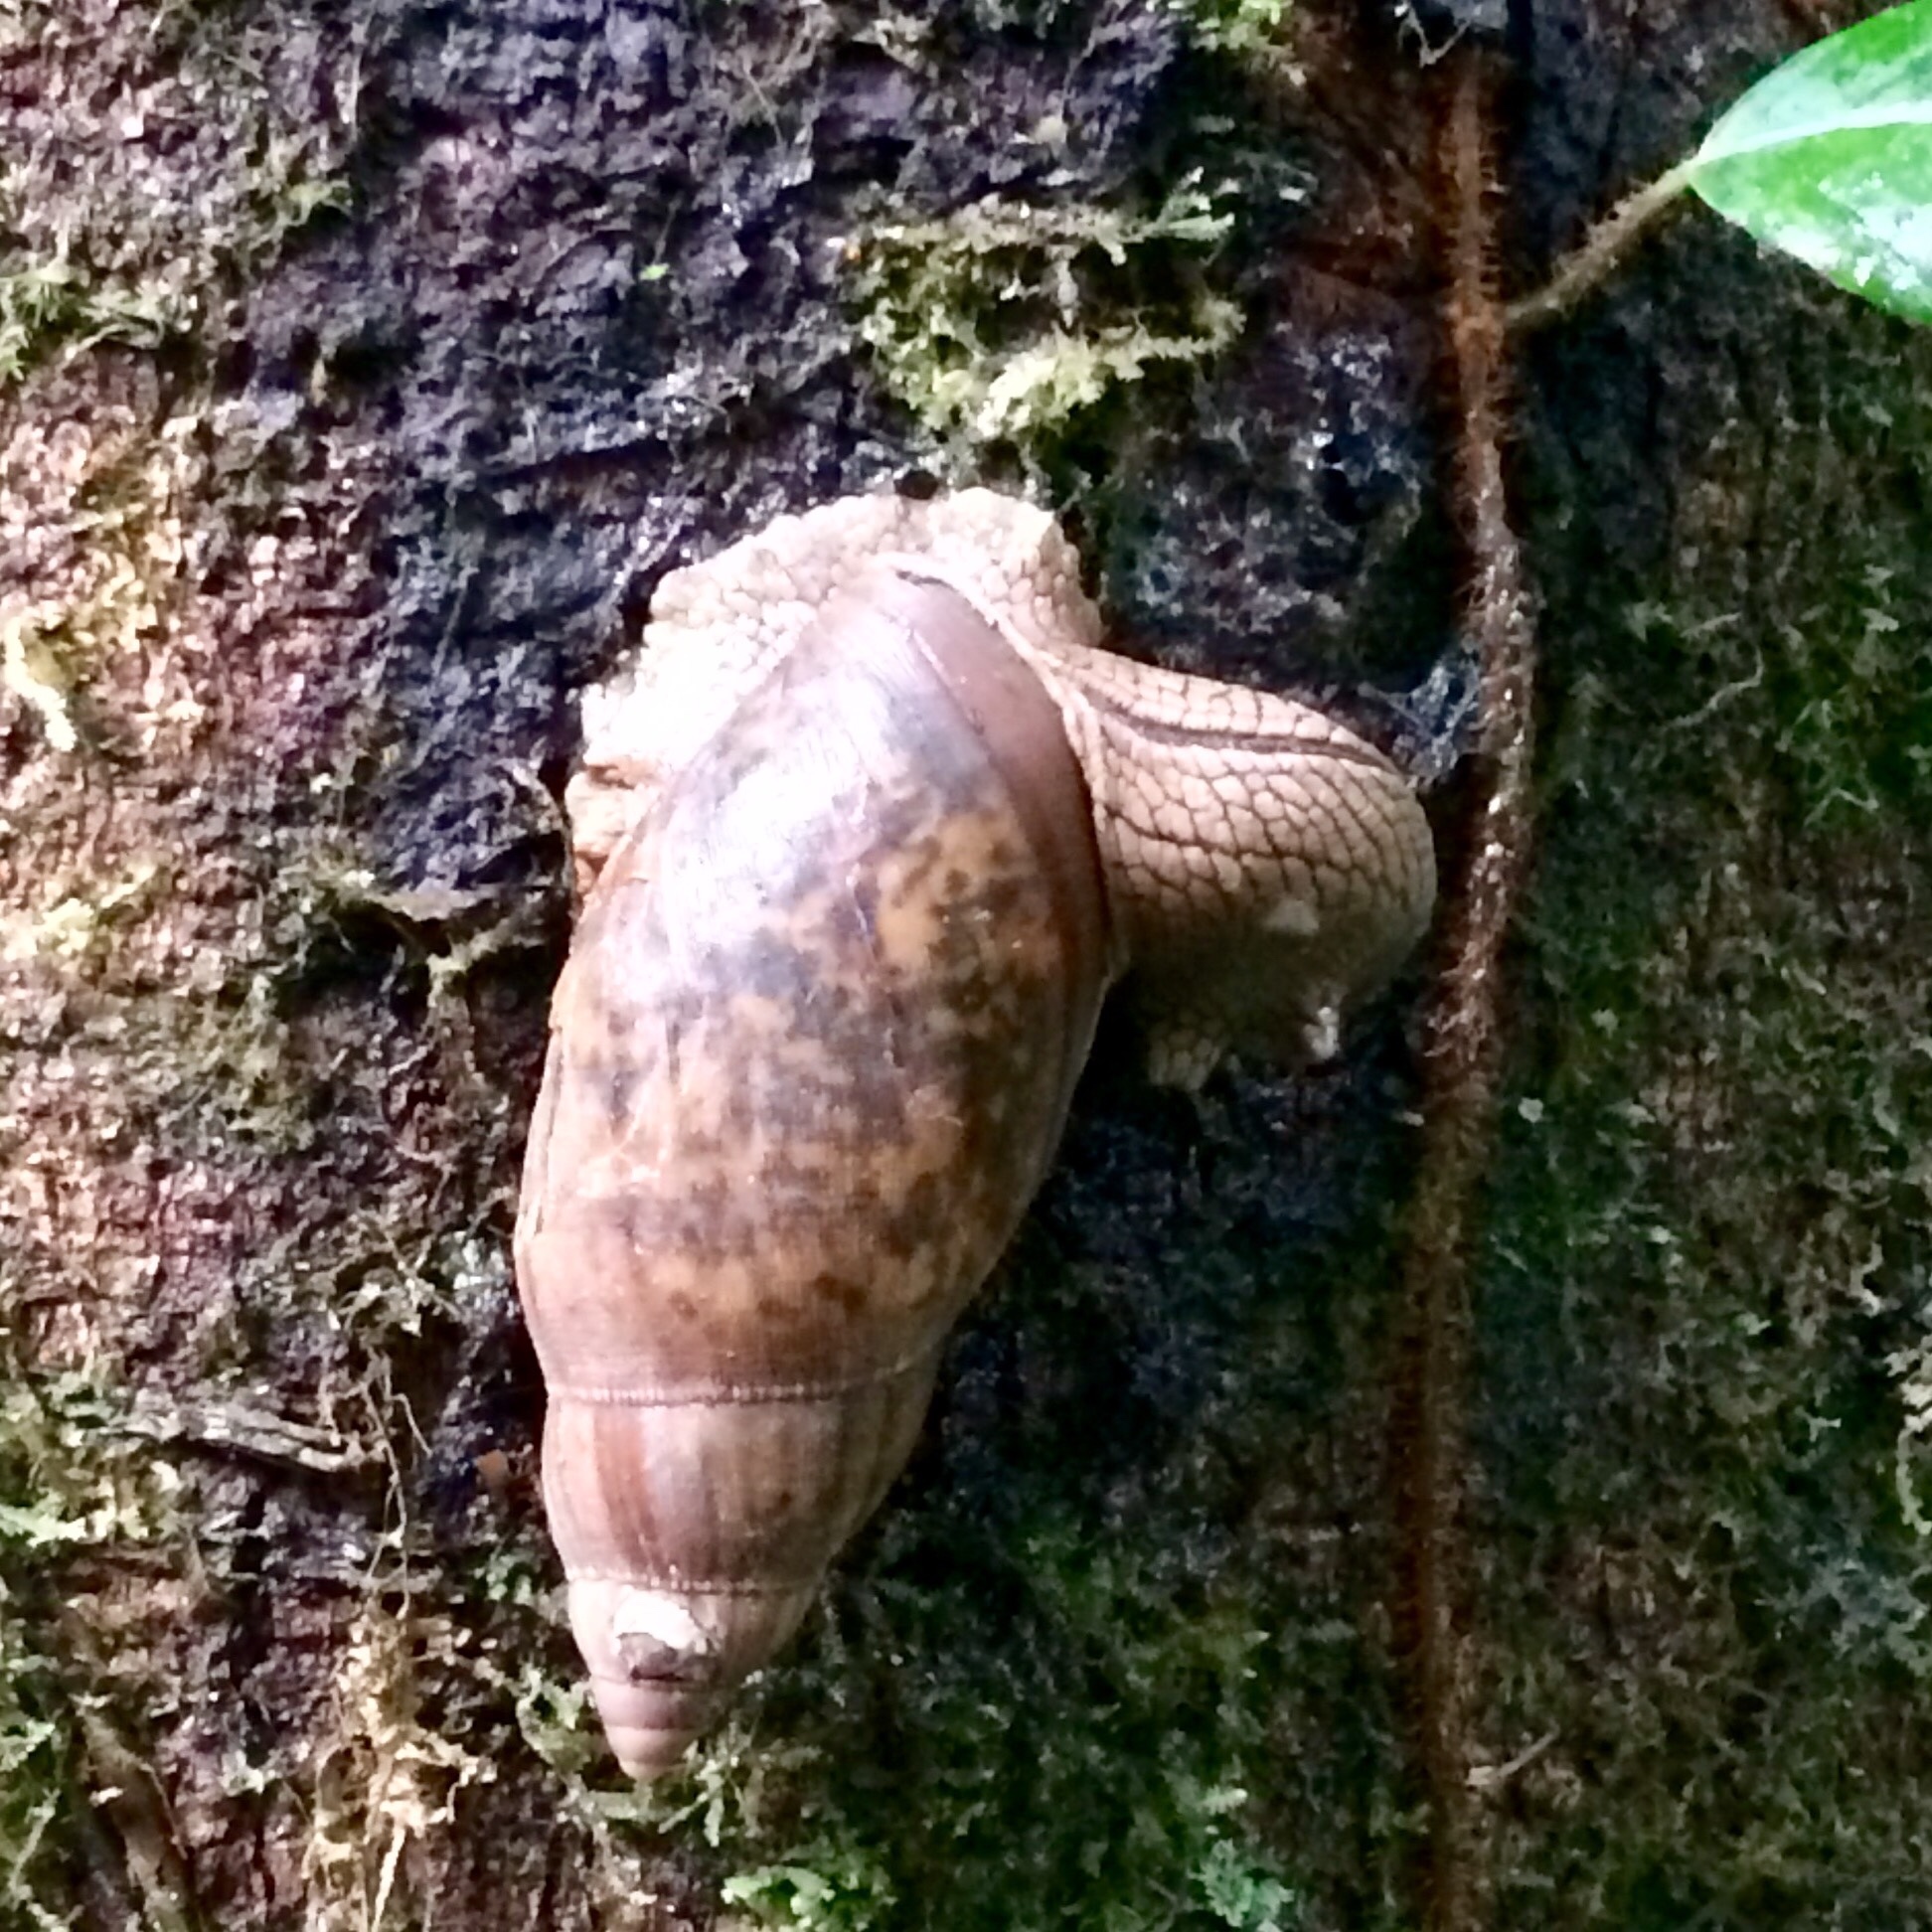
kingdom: Animalia
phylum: Mollusca
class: Gastropoda
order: Stylommatophora
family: Spiraxidae
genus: Euglandina
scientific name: Euglandina gigantea
